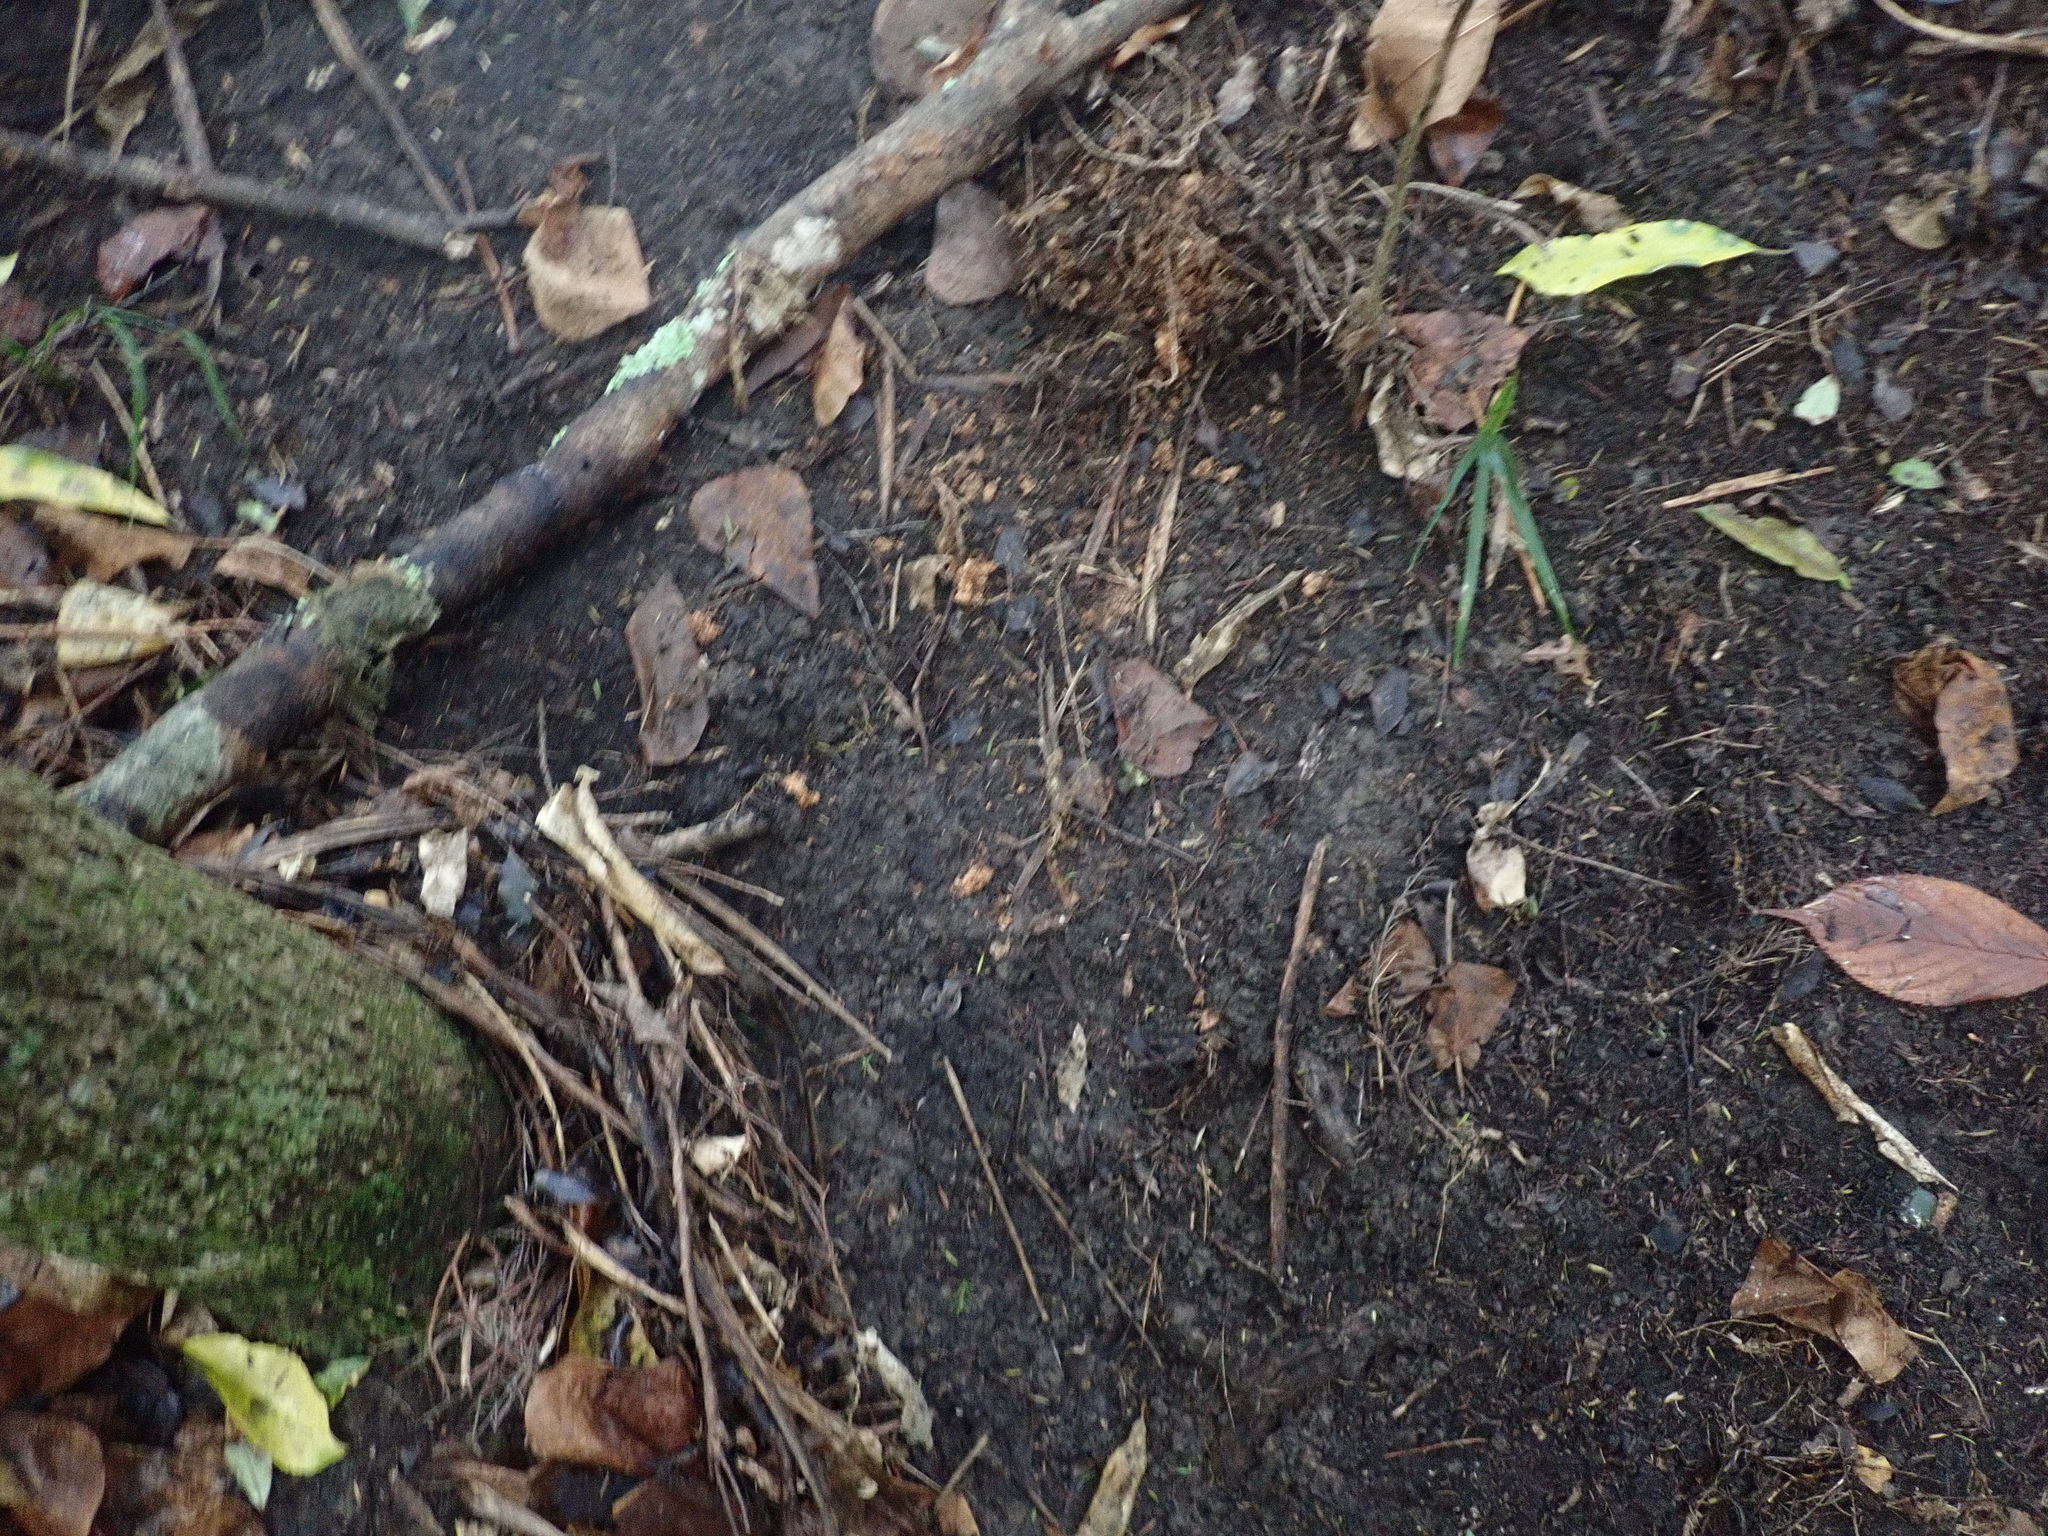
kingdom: Plantae
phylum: Tracheophyta
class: Liliopsida
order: Arecales
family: Arecaceae
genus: Rhopalostylis
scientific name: Rhopalostylis sapida
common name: Feather-duster palm
